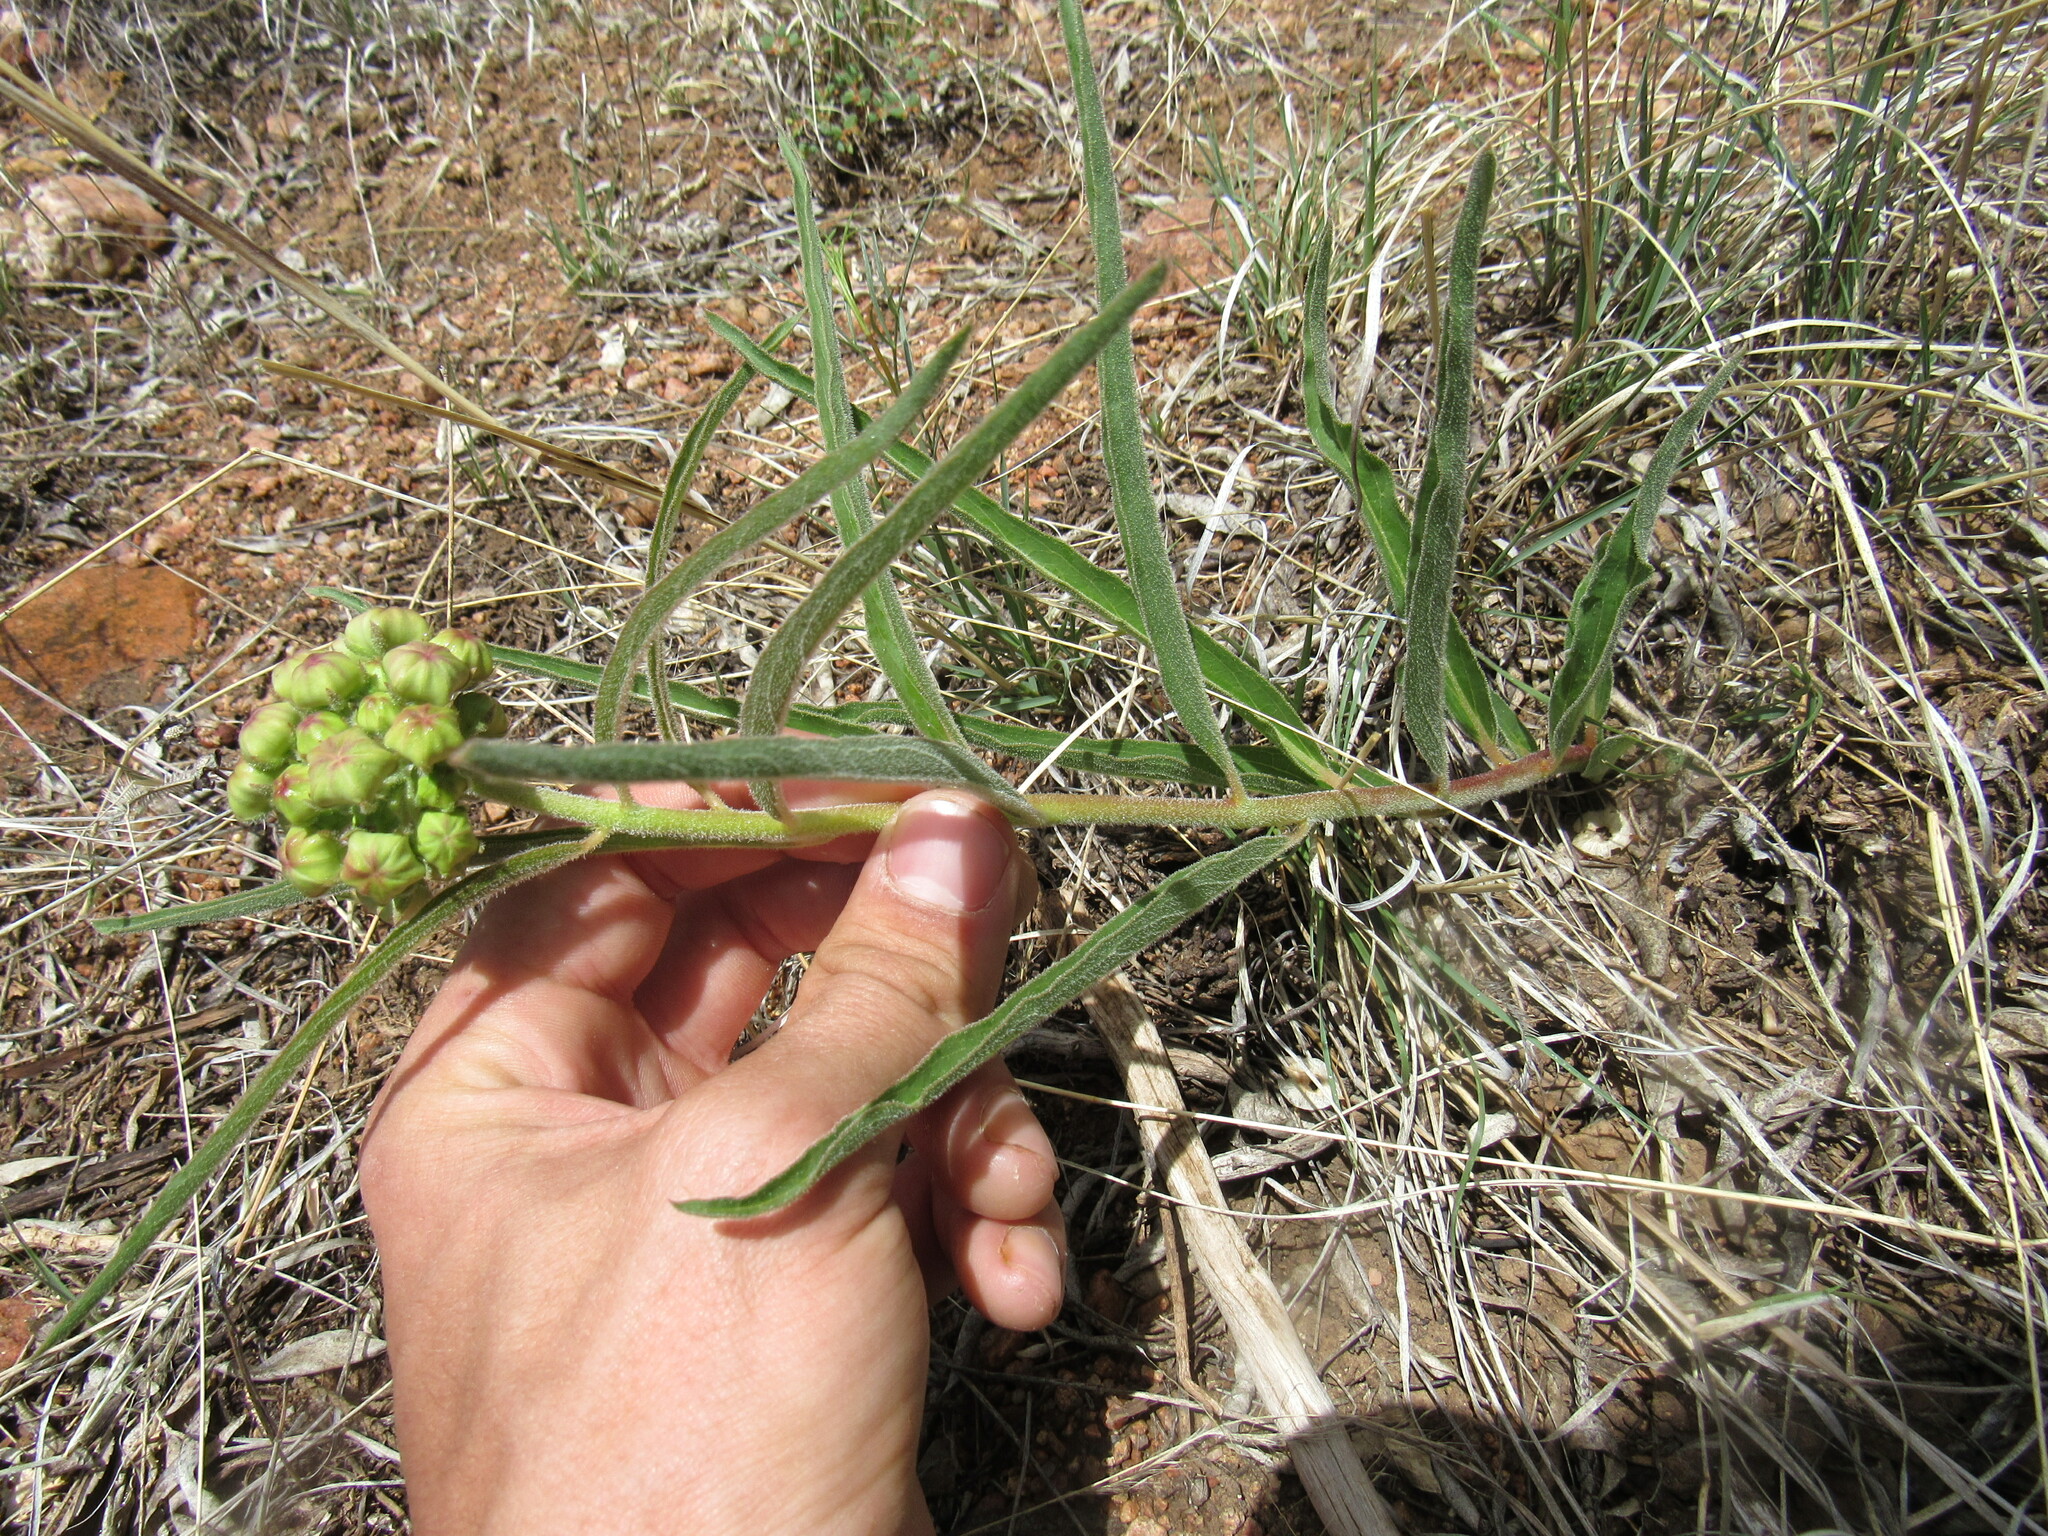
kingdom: Plantae
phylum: Tracheophyta
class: Magnoliopsida
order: Gentianales
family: Apocynaceae
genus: Asclepias
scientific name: Asclepias asperula
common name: Antelope horns
